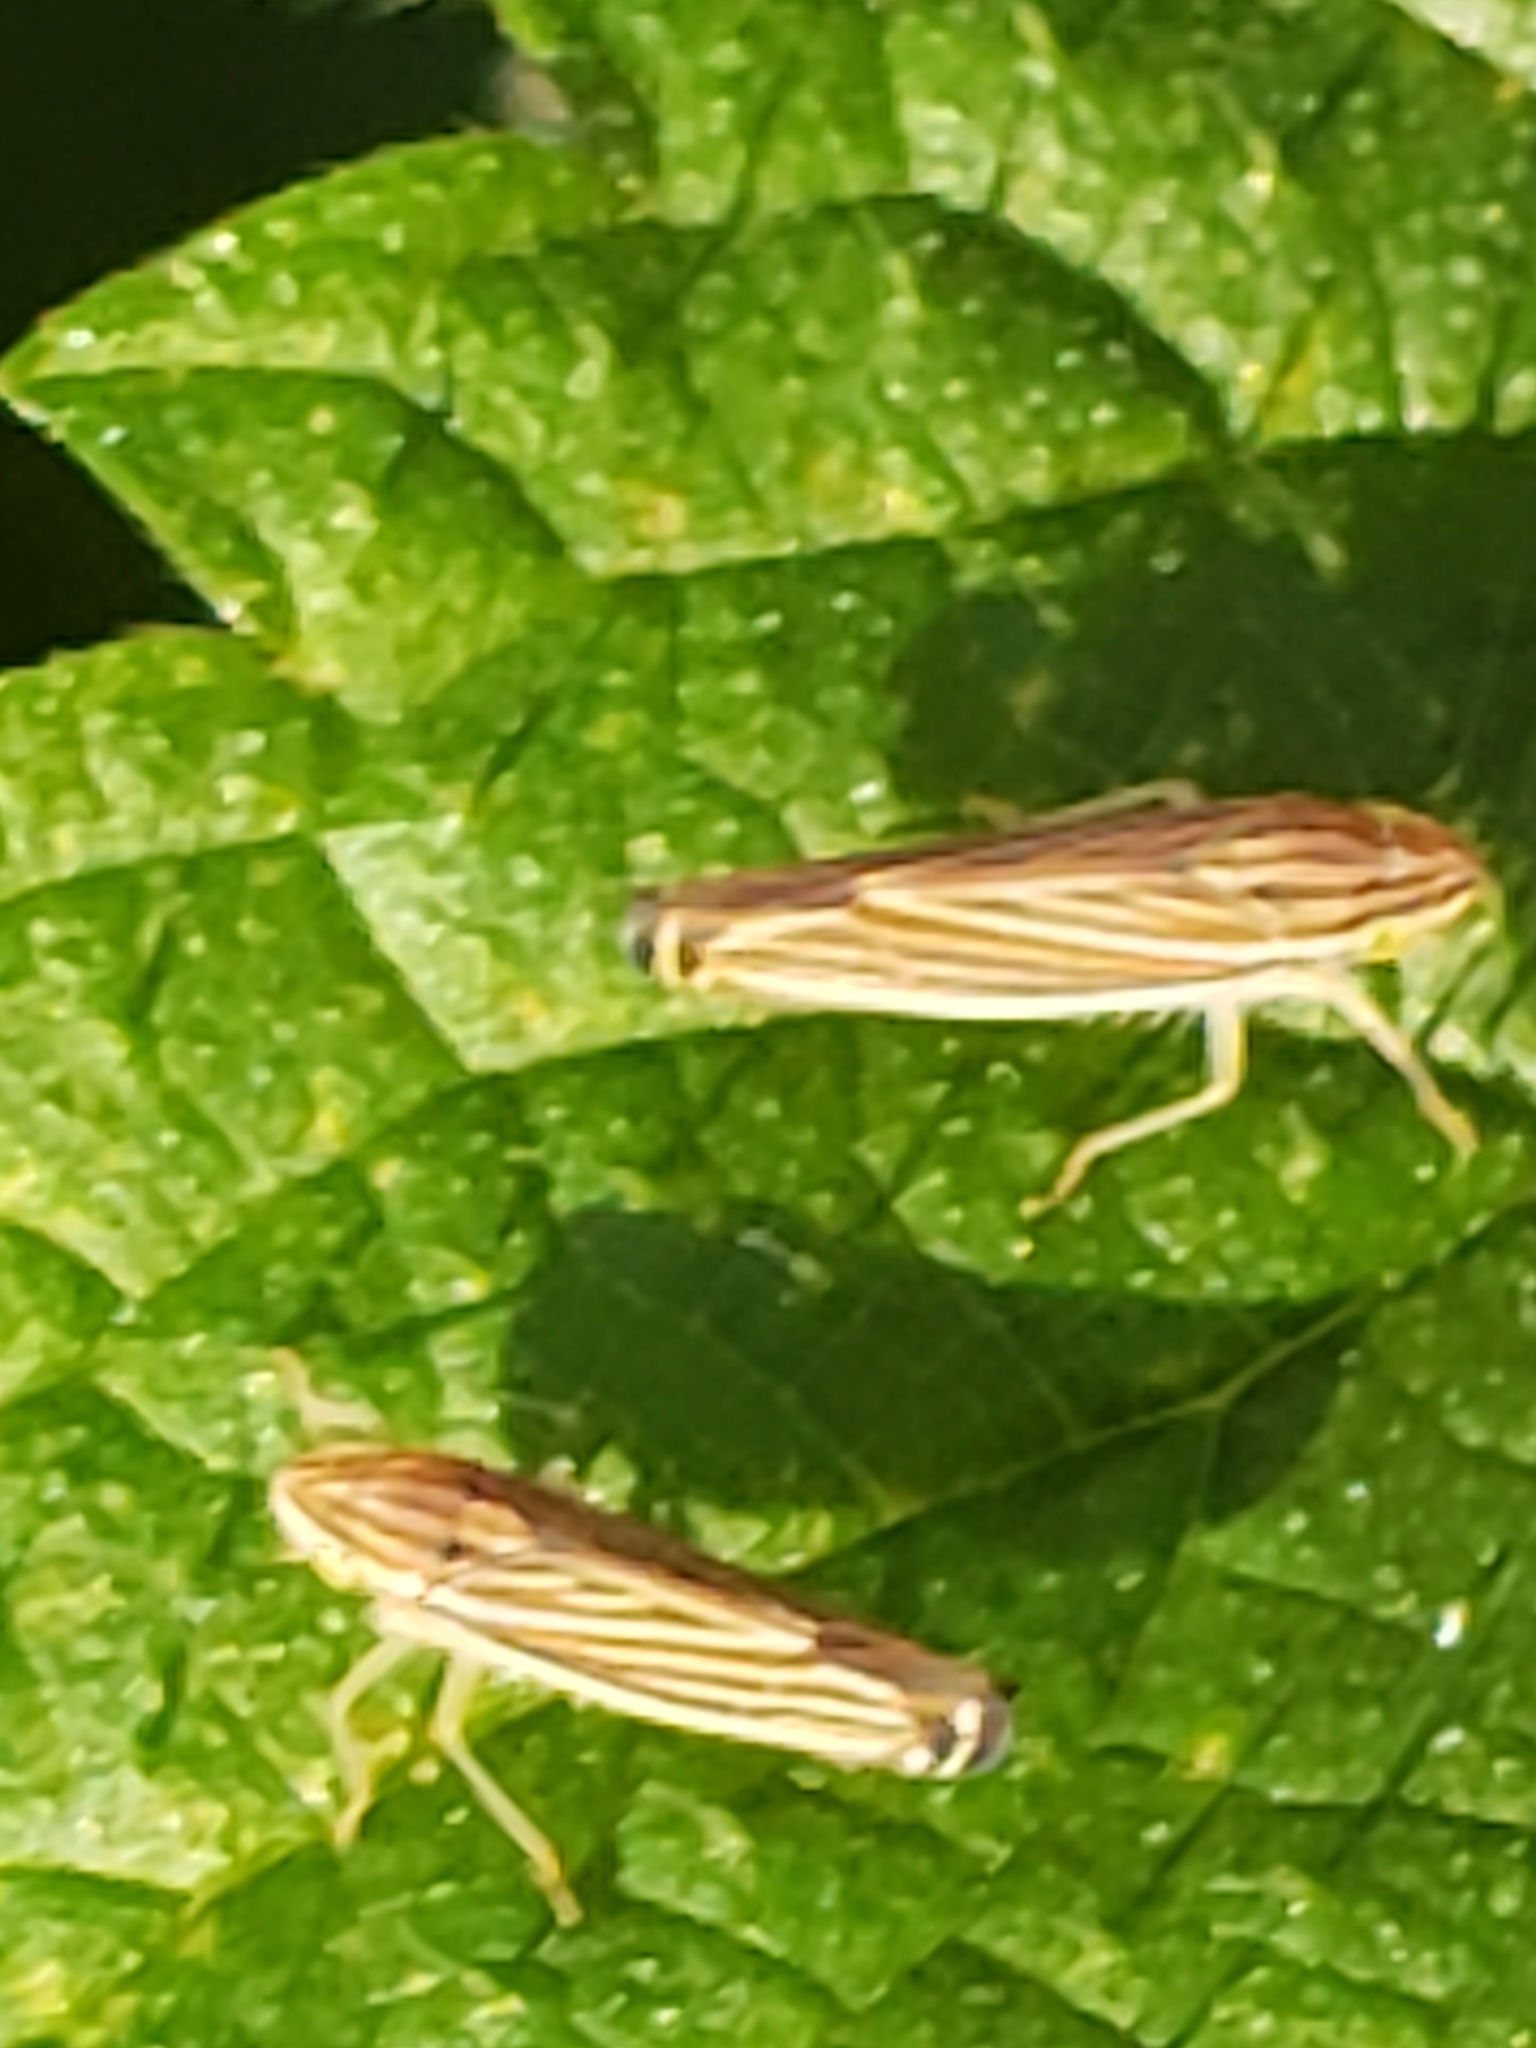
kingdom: Animalia
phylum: Arthropoda
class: Insecta
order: Hemiptera
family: Cicadellidae
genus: Sibovia
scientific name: Sibovia occatoria
